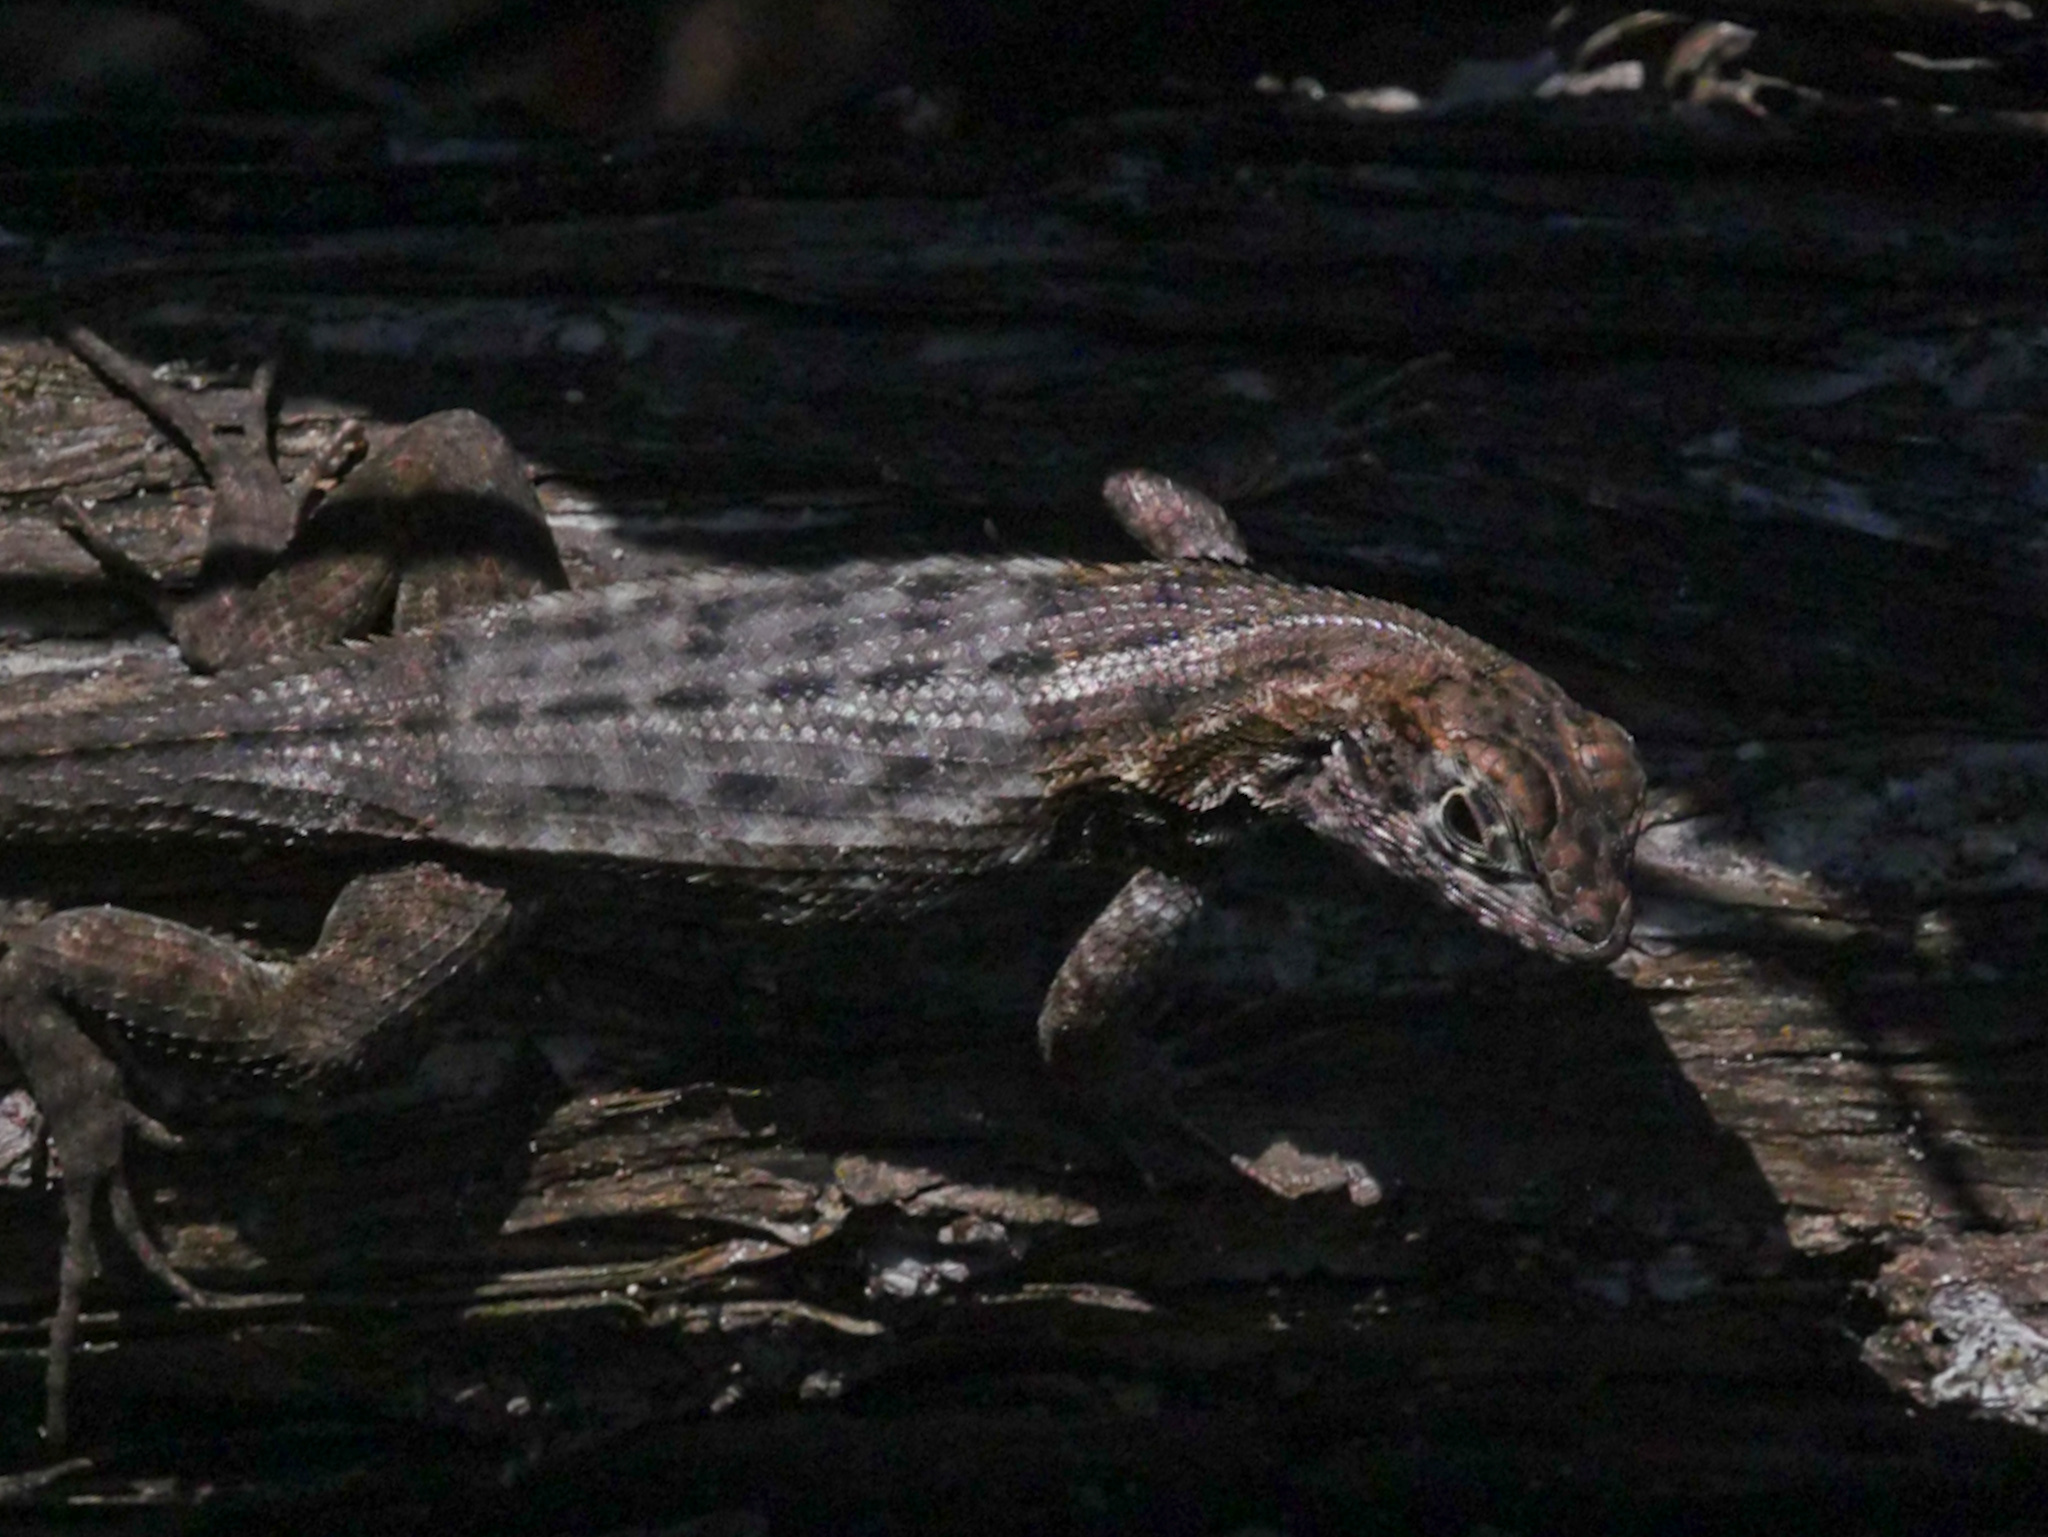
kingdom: Animalia
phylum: Chordata
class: Squamata
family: Leiocephalidae
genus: Leiocephalus
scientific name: Leiocephalus varius
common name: Cayman curlytail
